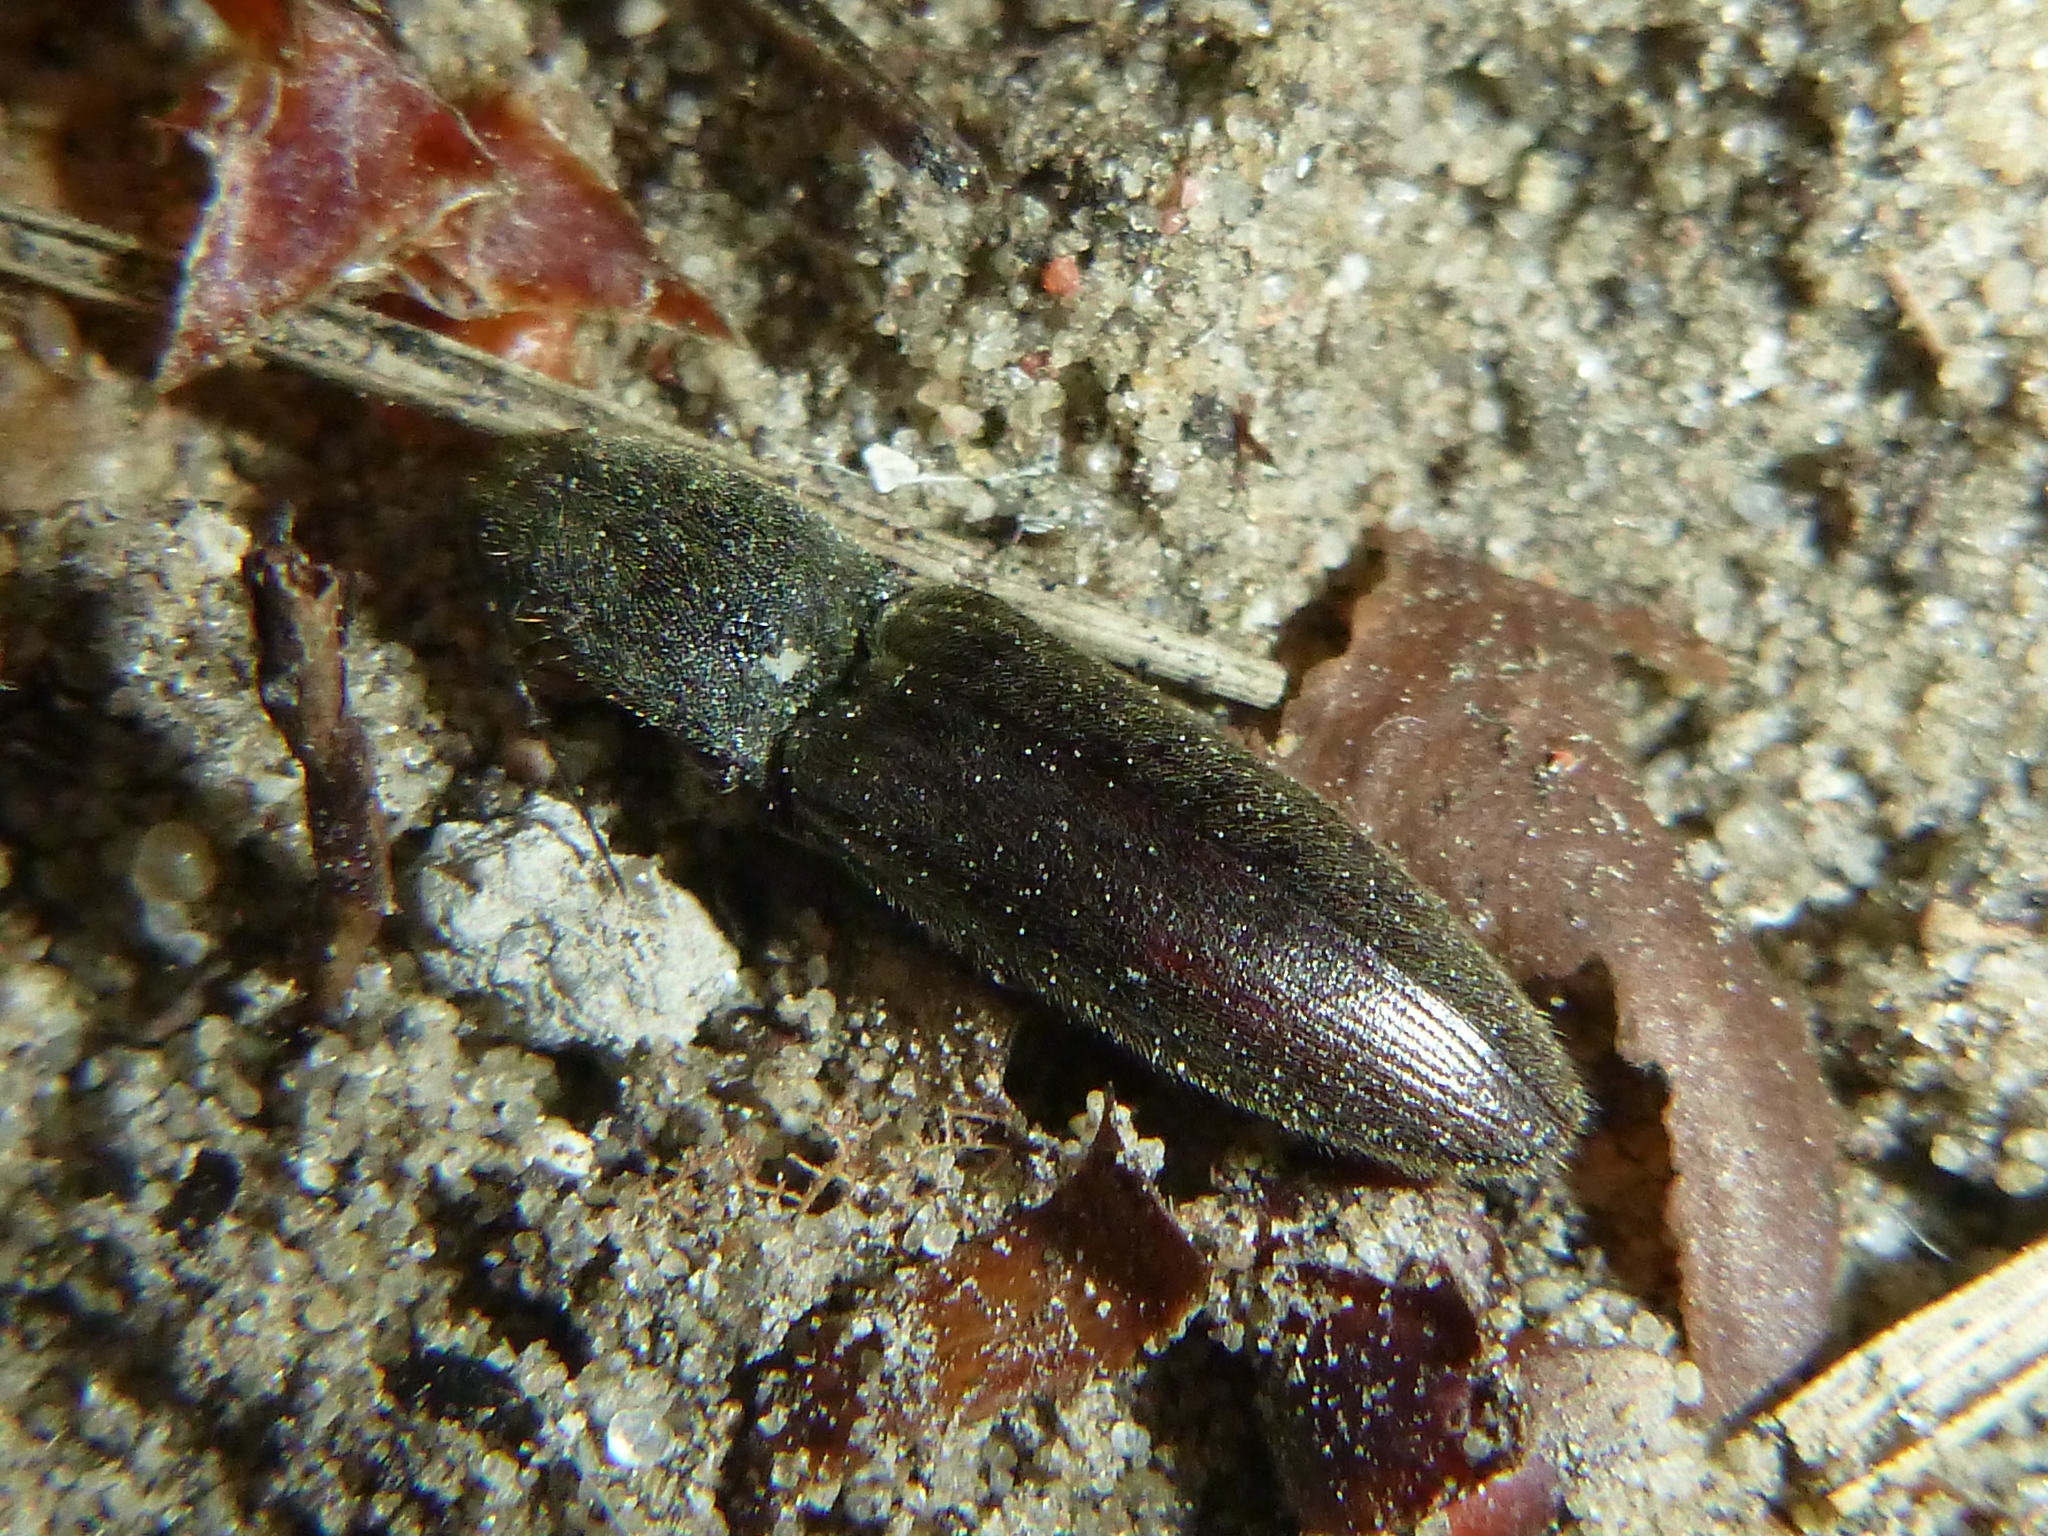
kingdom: Animalia
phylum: Arthropoda
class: Insecta
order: Coleoptera
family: Elateridae
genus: Athous
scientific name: Athous haemorrhoidalis
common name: Red-brown click beetle
